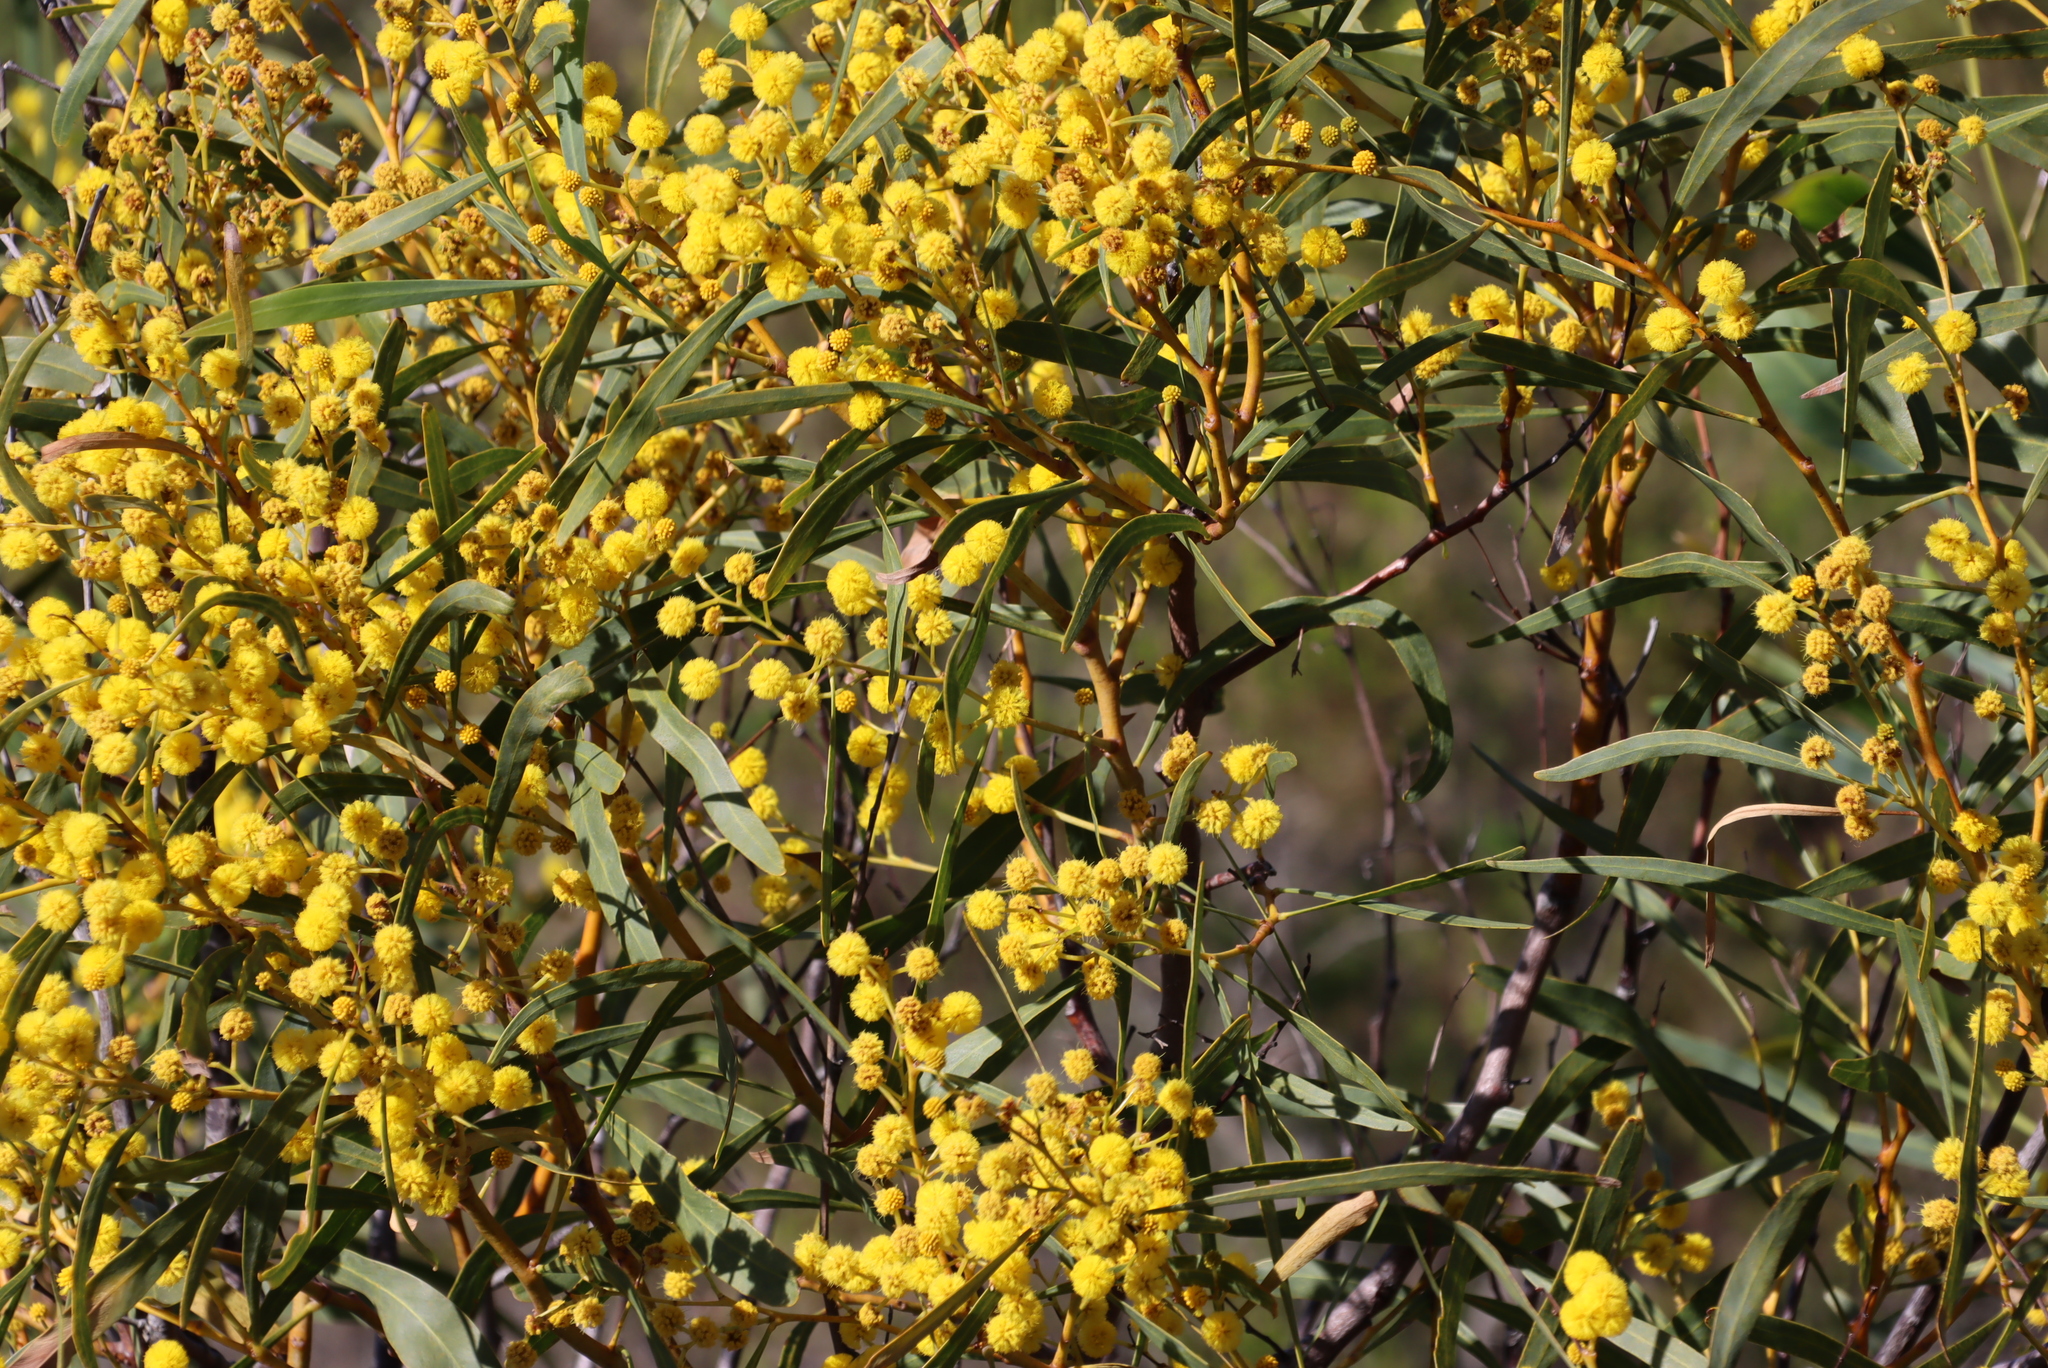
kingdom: Plantae
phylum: Tracheophyta
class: Magnoliopsida
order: Fabales
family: Fabaceae
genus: Acacia
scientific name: Acacia saligna
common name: Orange wattle
